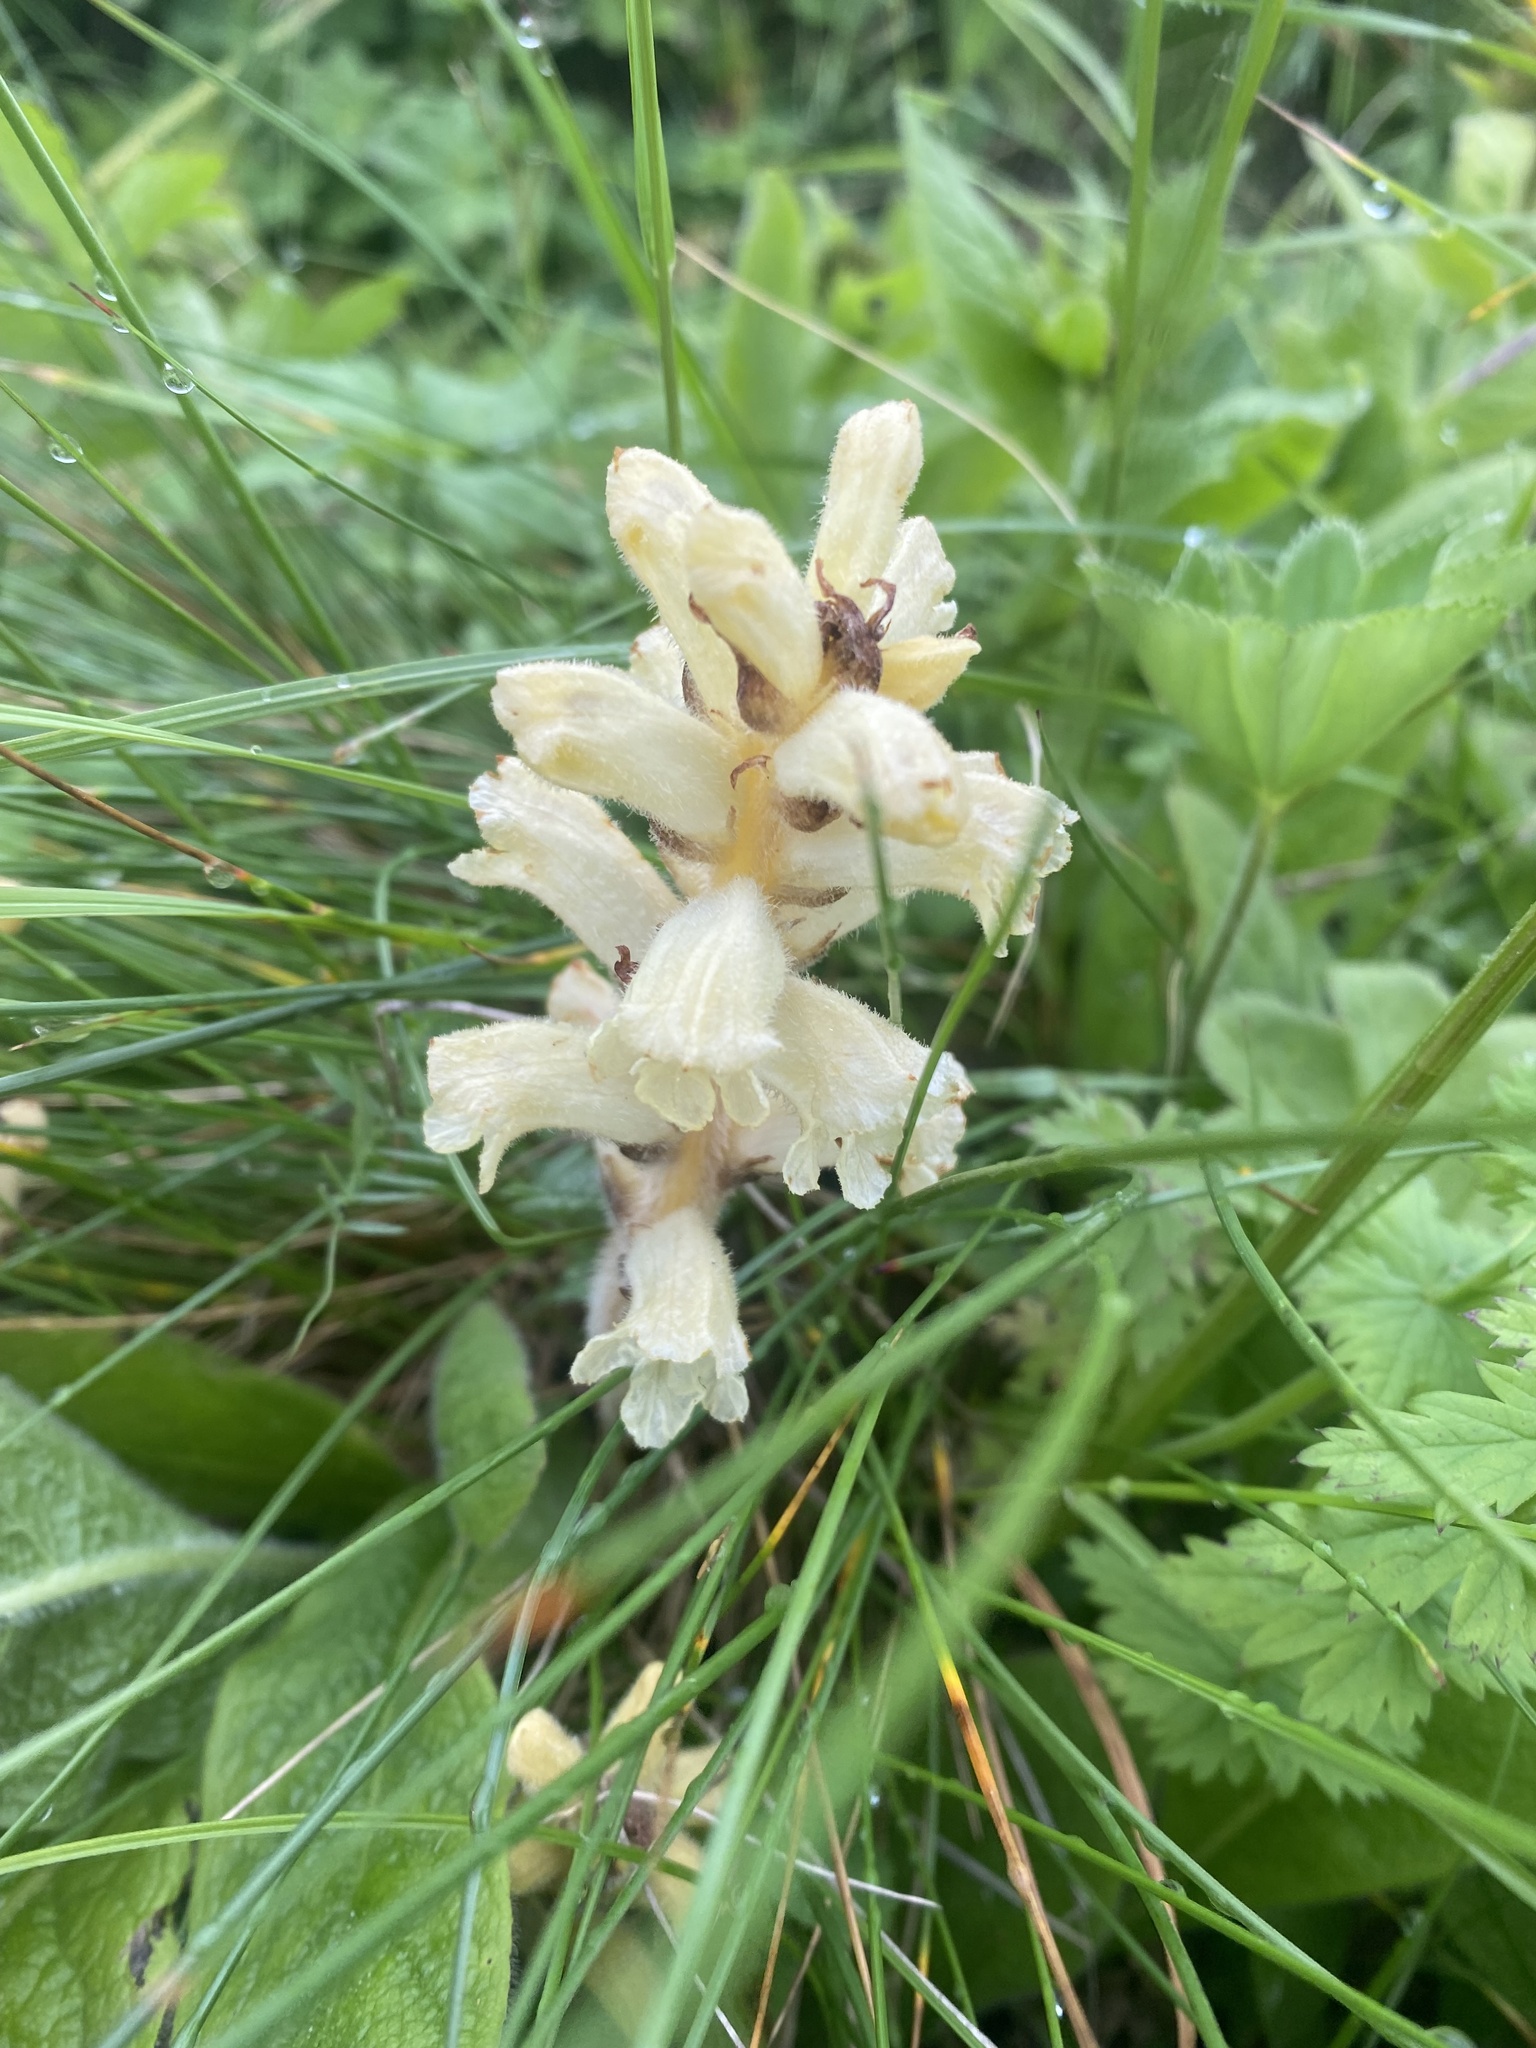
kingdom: Plantae
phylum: Tracheophyta
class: Magnoliopsida
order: Lamiales
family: Orobanchaceae
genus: Orobanche
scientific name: Orobanche inulae
